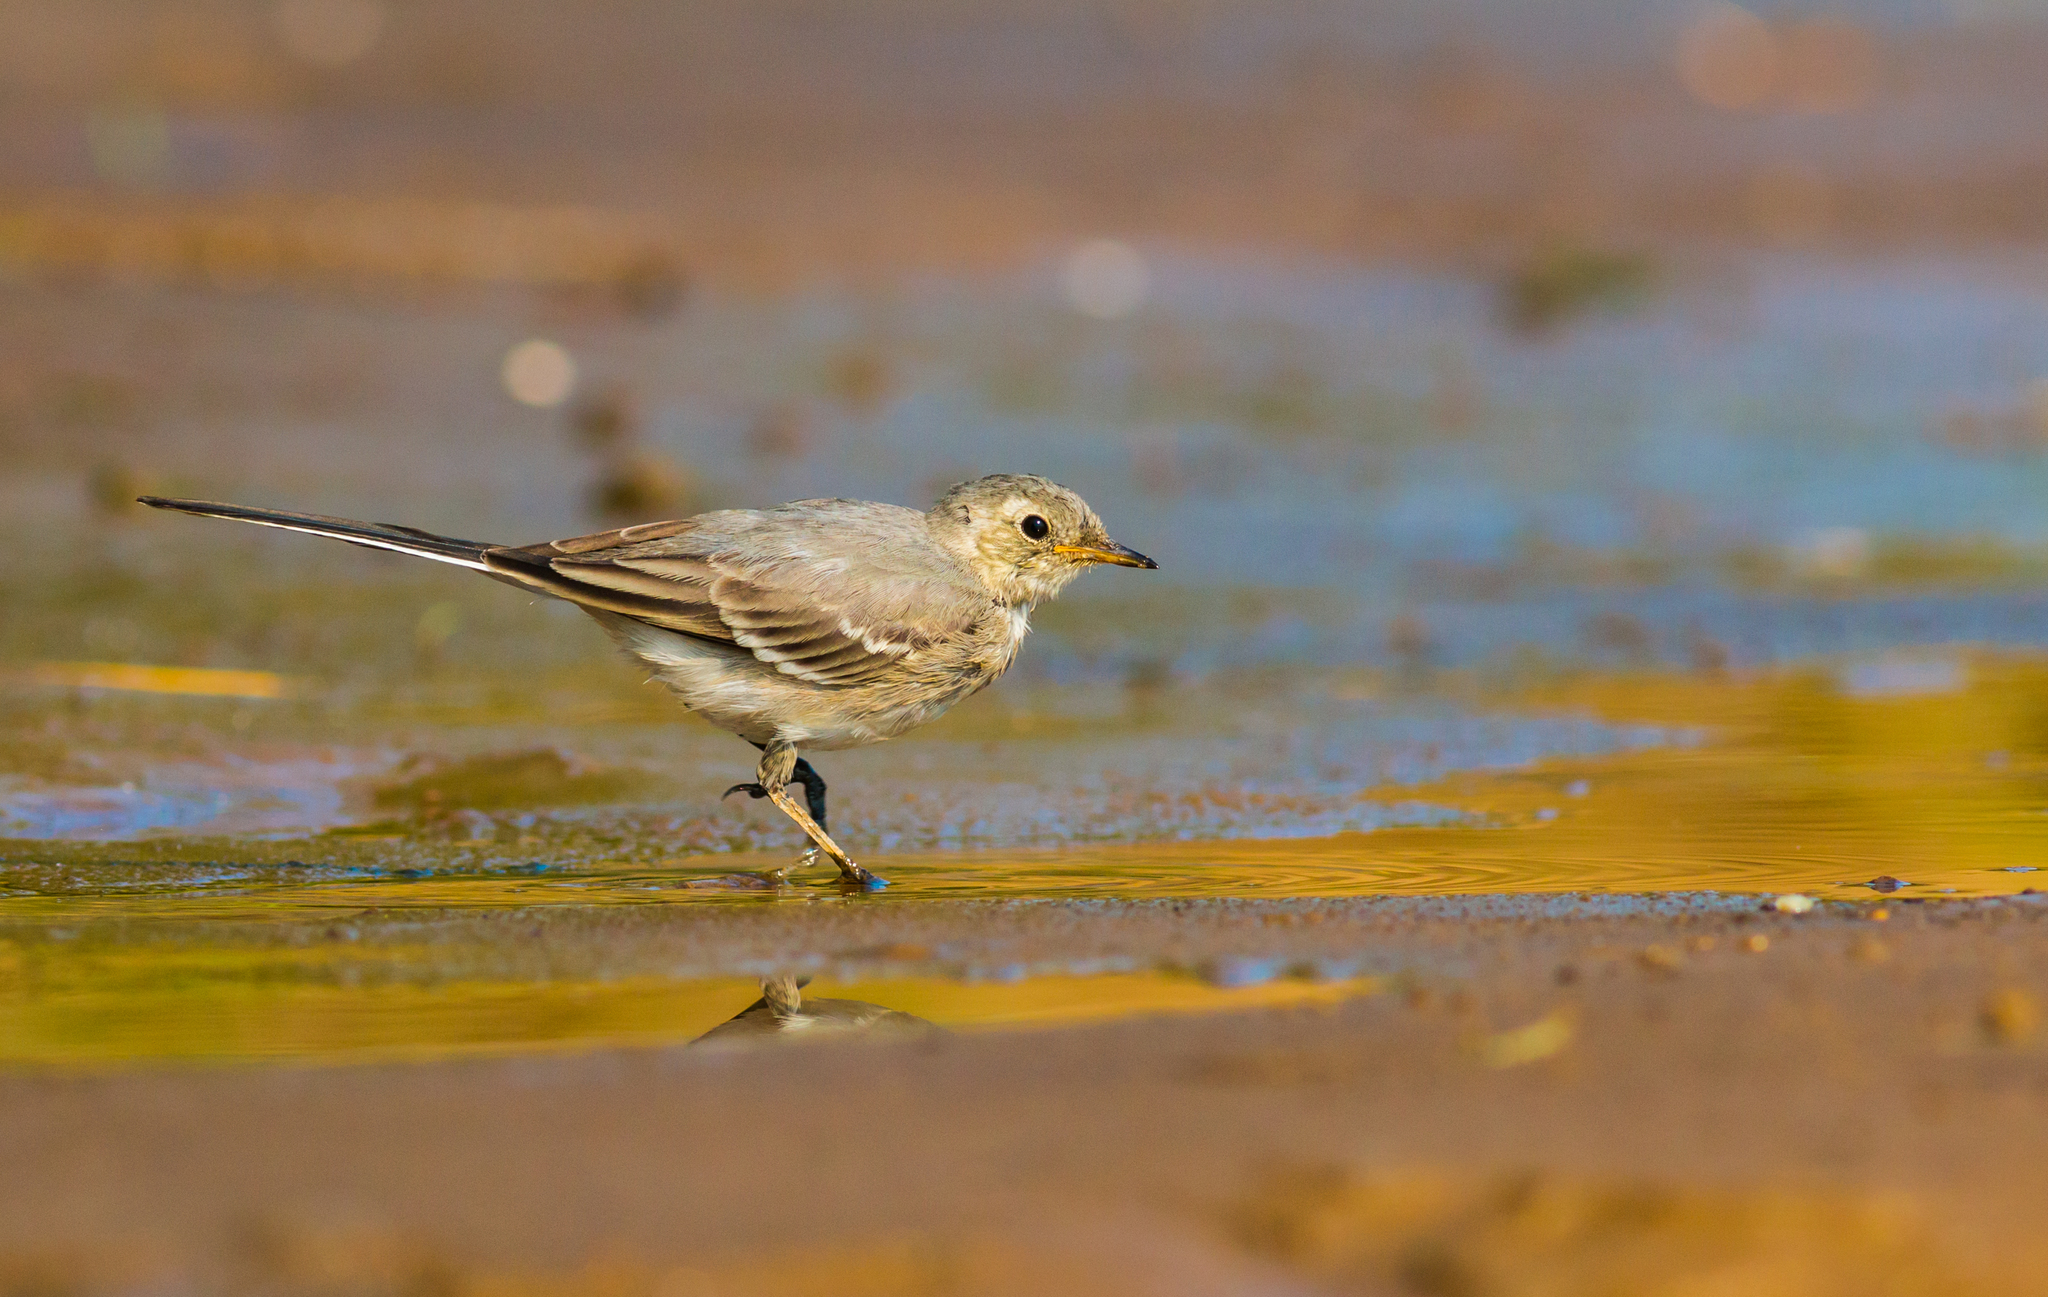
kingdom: Animalia
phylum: Chordata
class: Aves
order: Passeriformes
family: Motacillidae
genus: Motacilla
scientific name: Motacilla alba
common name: White wagtail
